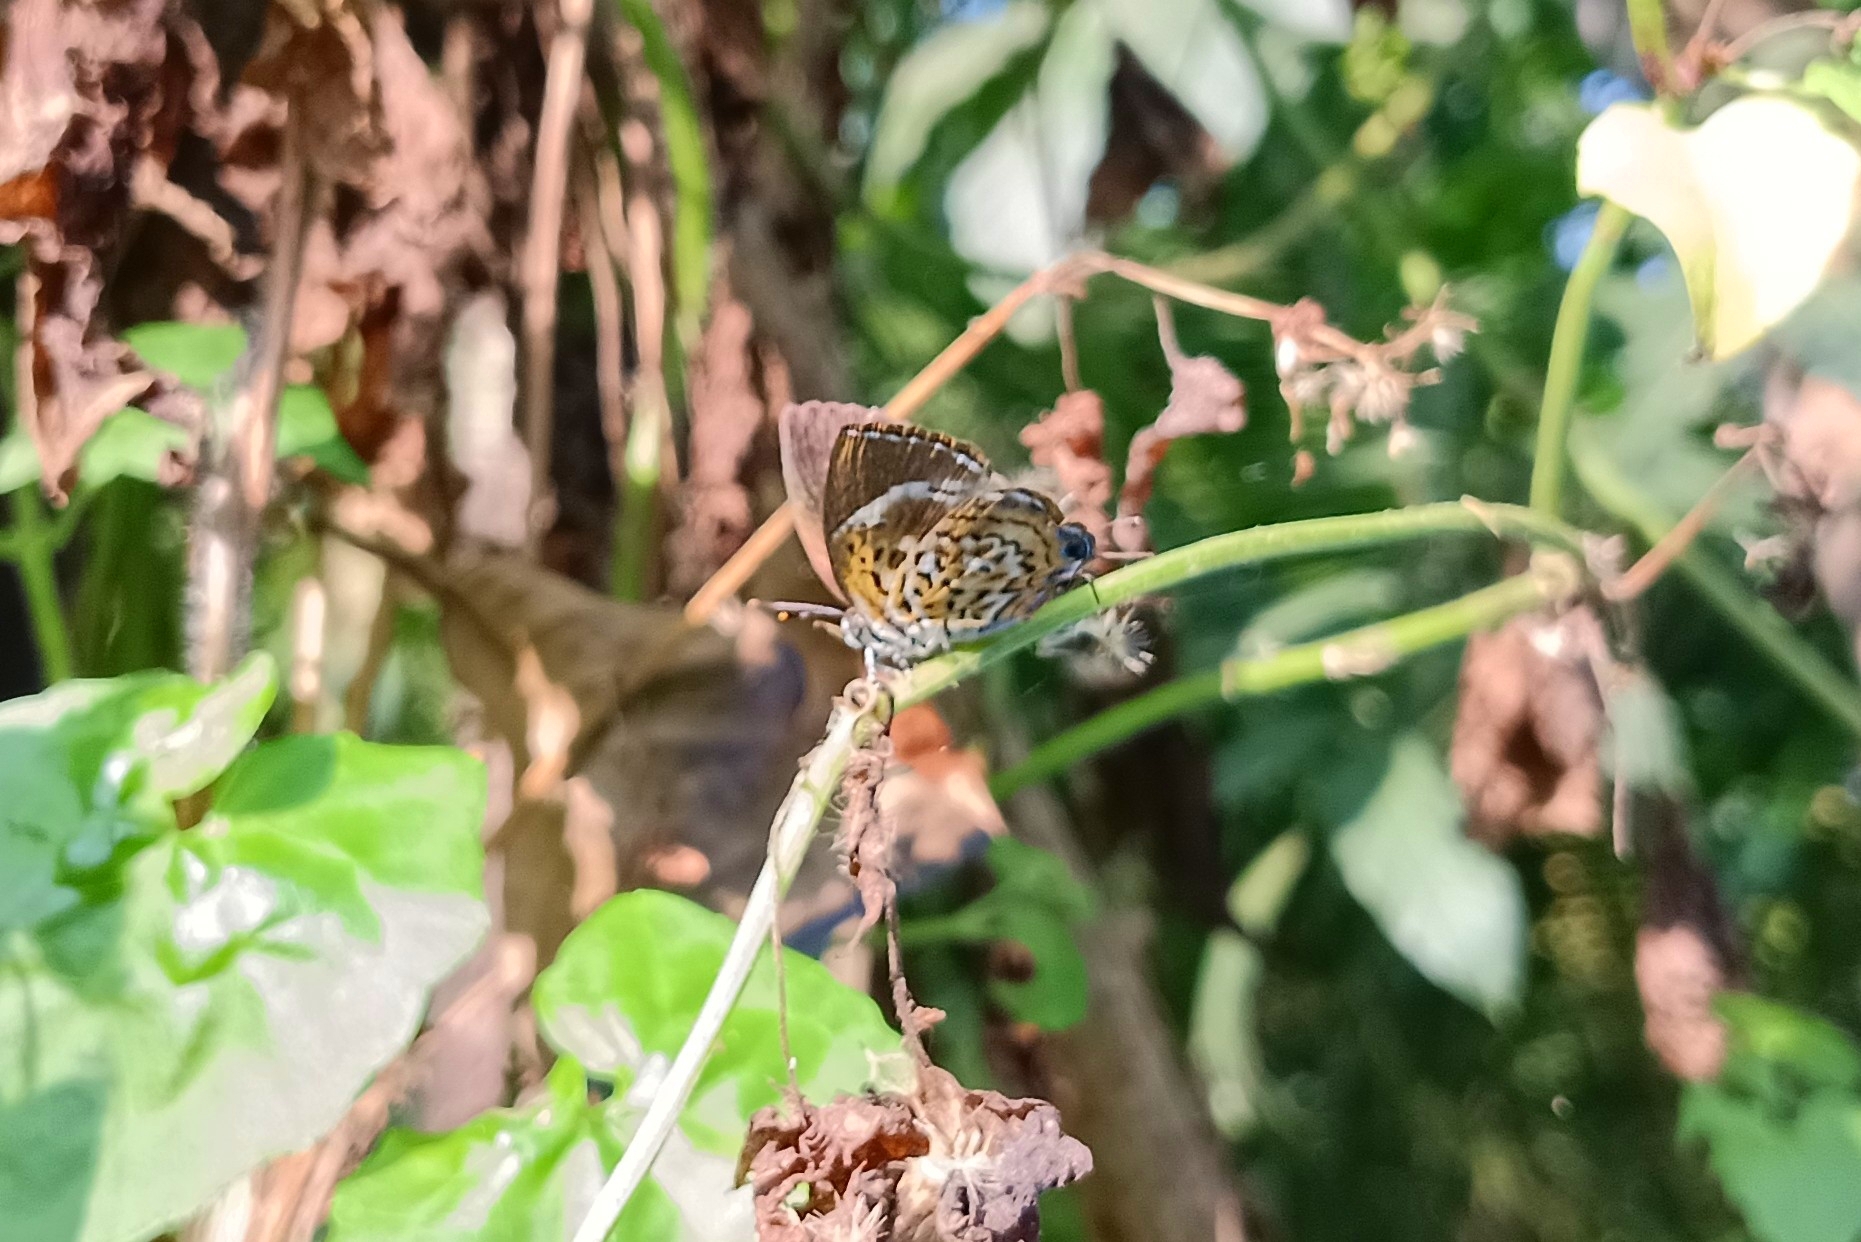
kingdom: Animalia
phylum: Arthropoda
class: Insecta
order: Lepidoptera
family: Lycaenidae
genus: Rathinda
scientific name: Rathinda amor
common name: Monkey puzzle
